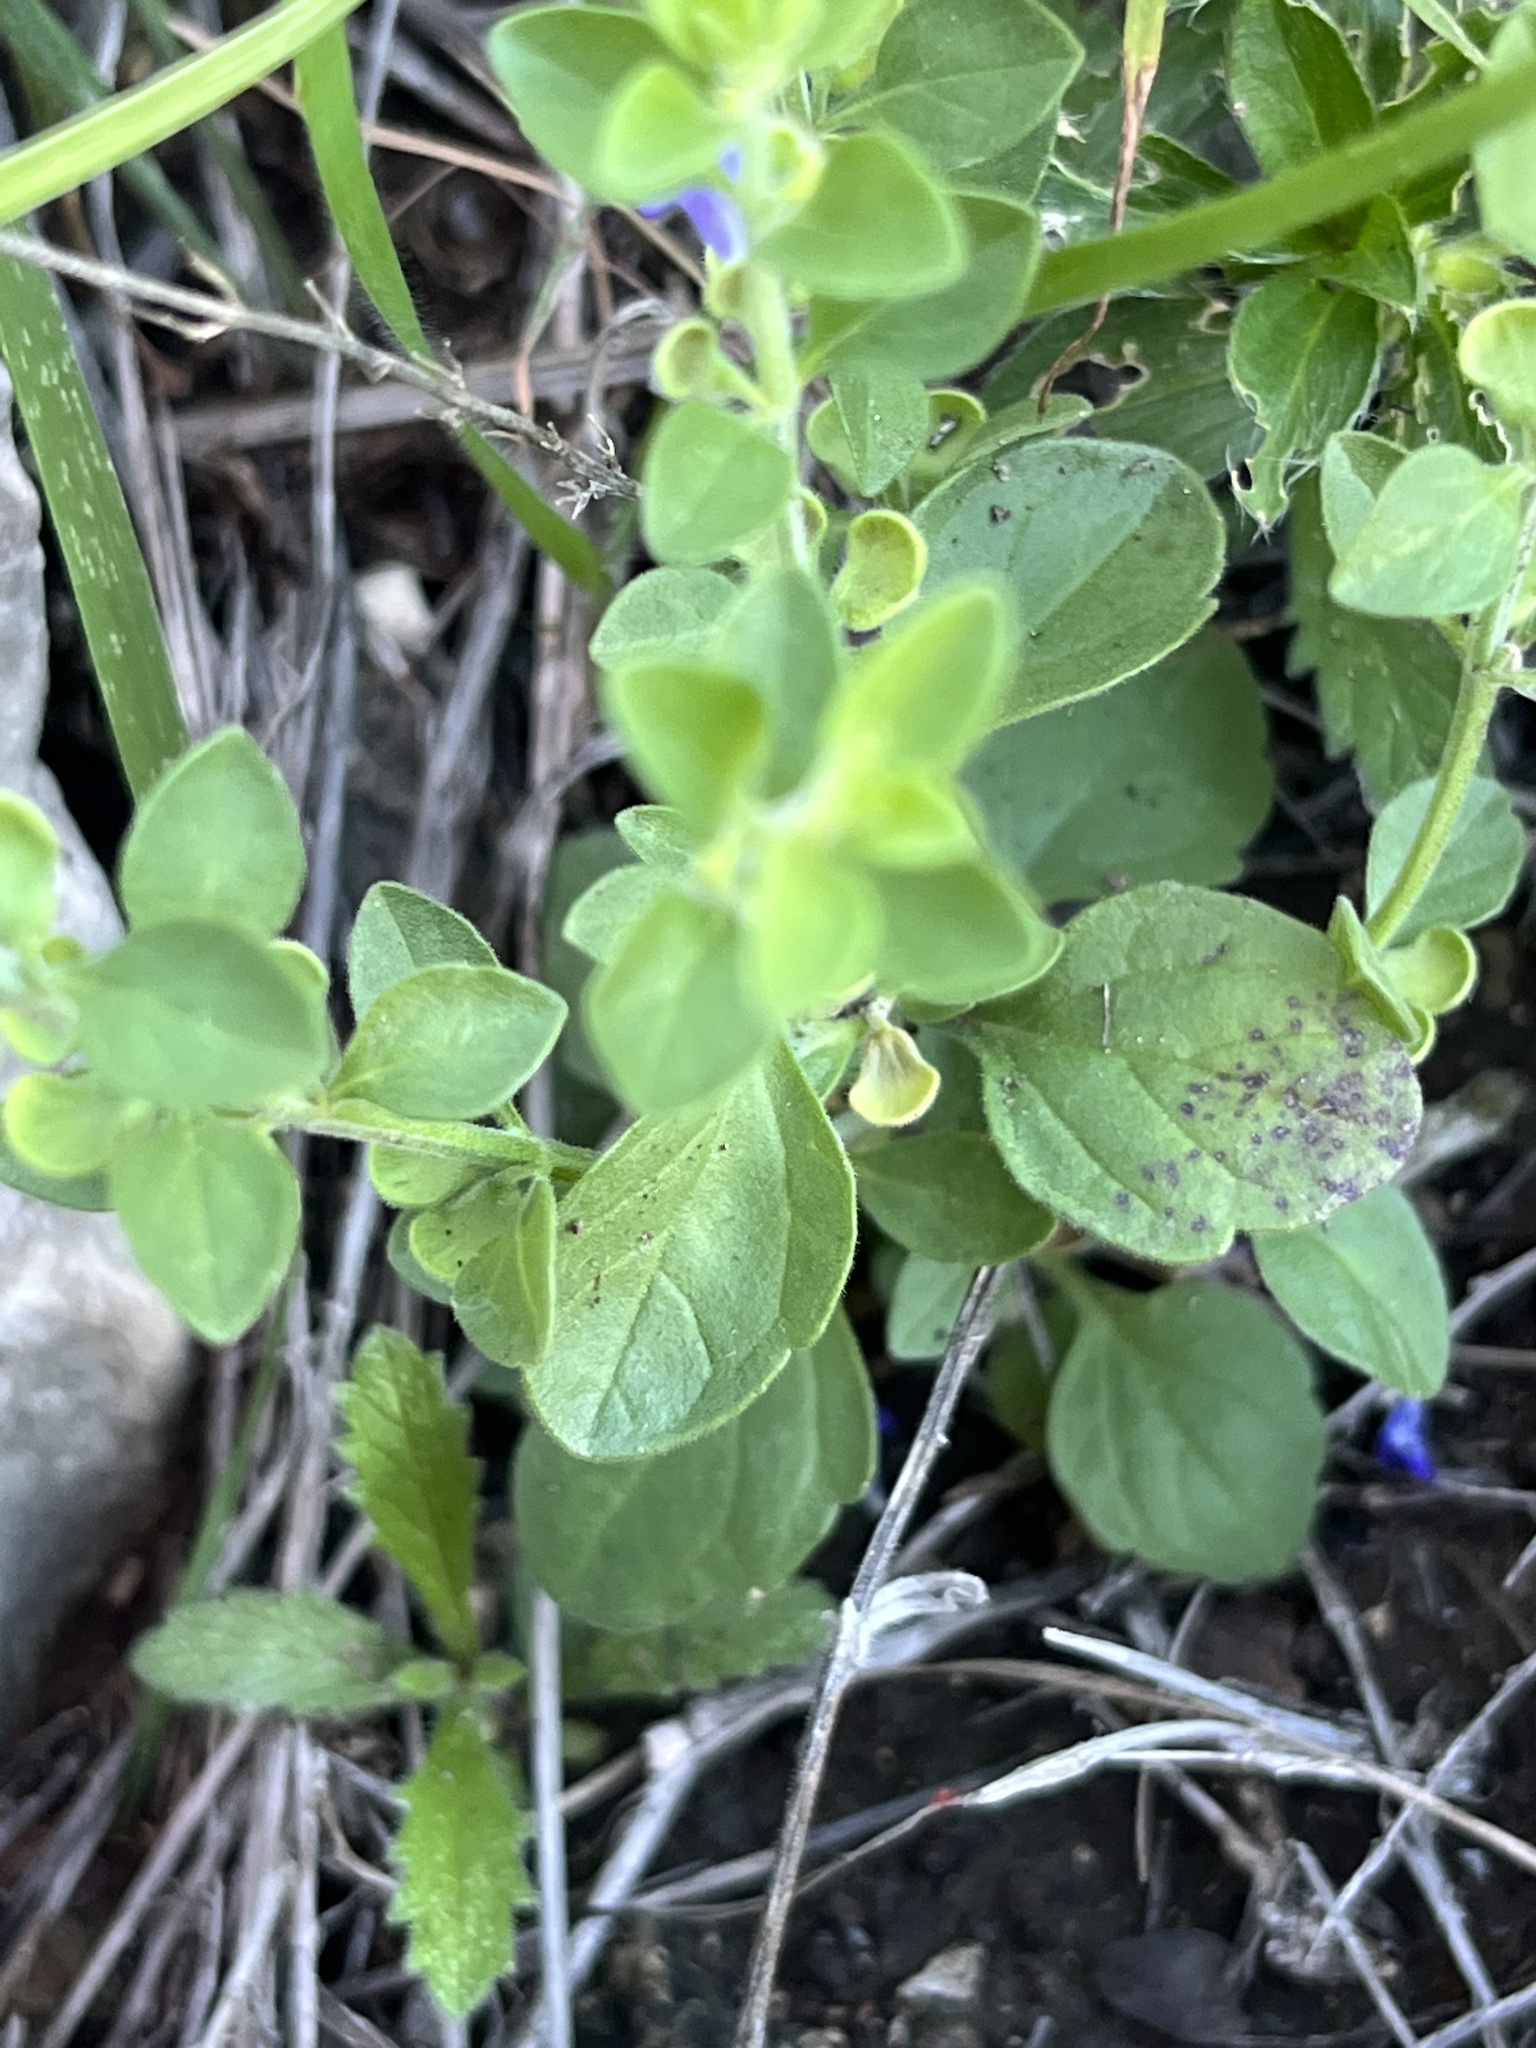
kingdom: Plantae
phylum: Tracheophyta
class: Magnoliopsida
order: Lamiales
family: Lamiaceae
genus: Scutellaria
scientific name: Scutellaria drummondii
